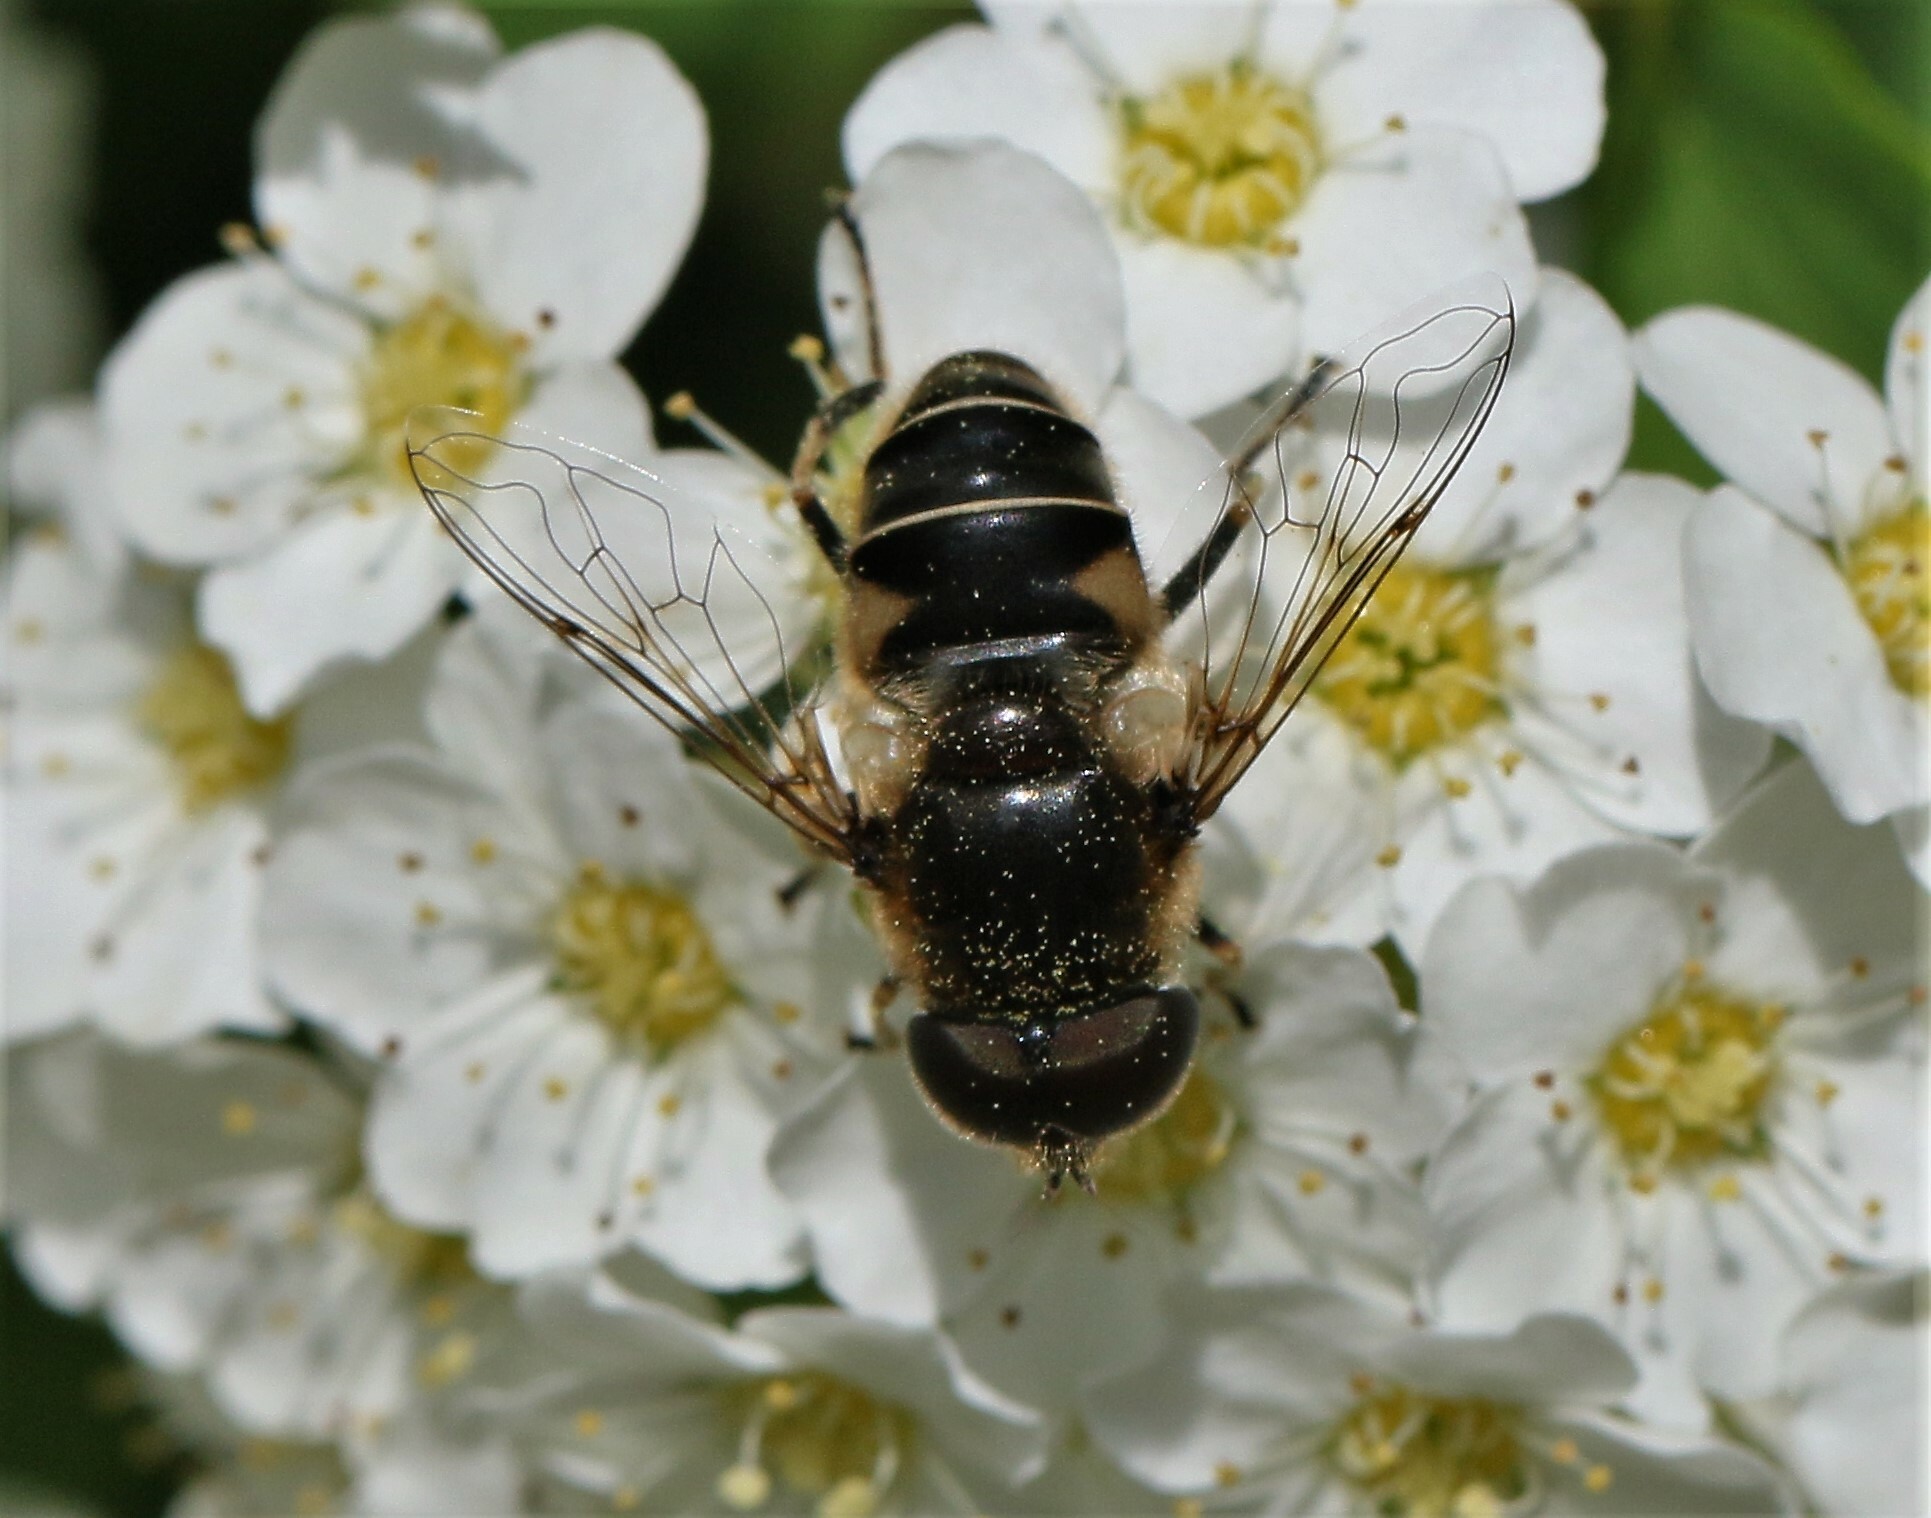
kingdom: Animalia
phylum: Arthropoda
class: Insecta
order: Diptera
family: Syrphidae
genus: Eristalis
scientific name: Eristalis nemorum
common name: Orange-spined drone fly
